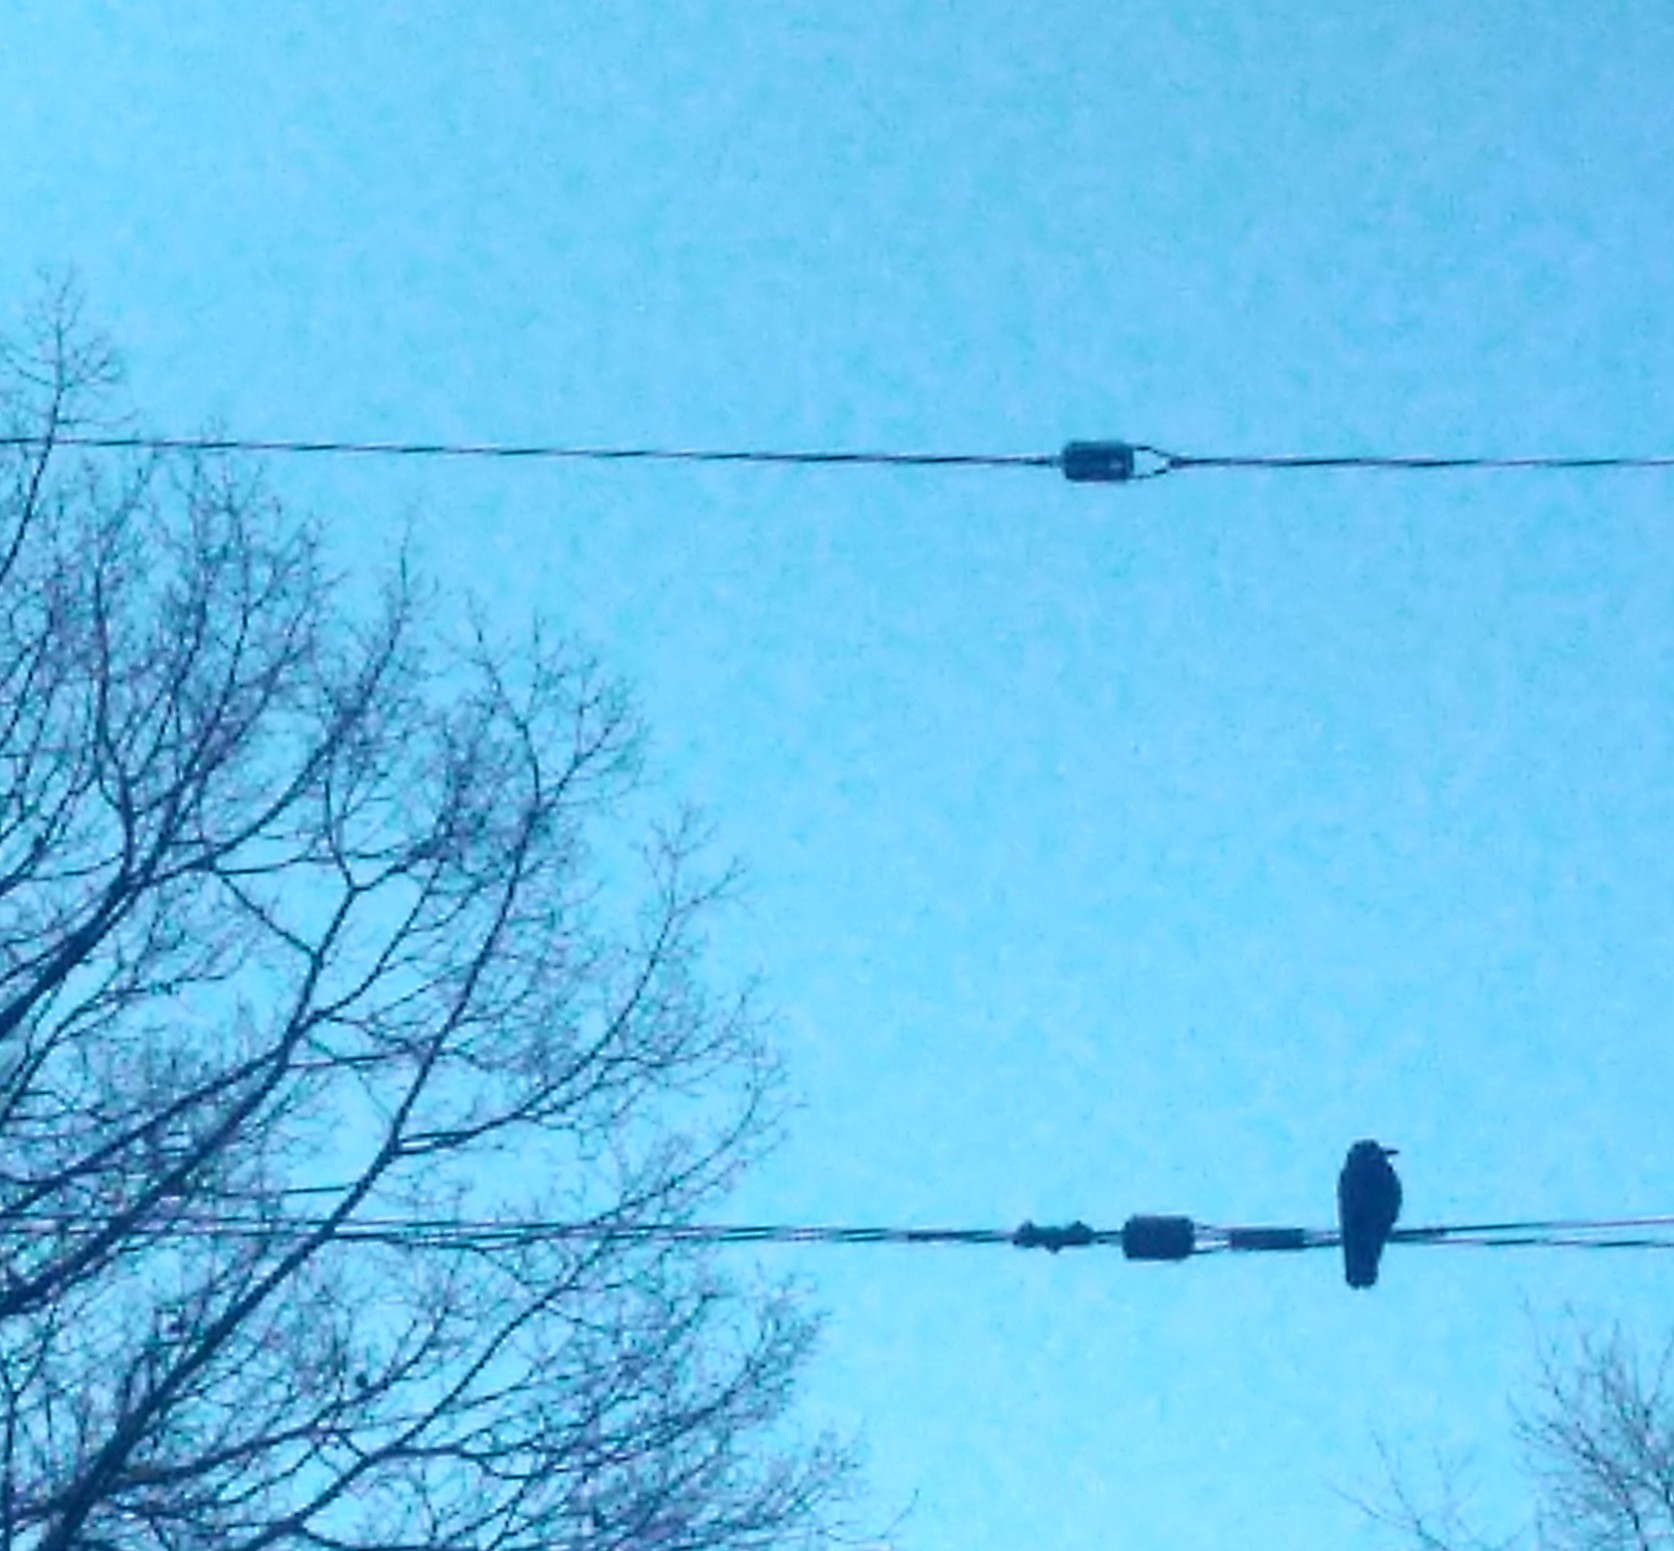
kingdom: Animalia
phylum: Chordata
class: Aves
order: Passeriformes
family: Corvidae
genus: Corvus
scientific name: Corvus brachyrhynchos
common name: American crow
